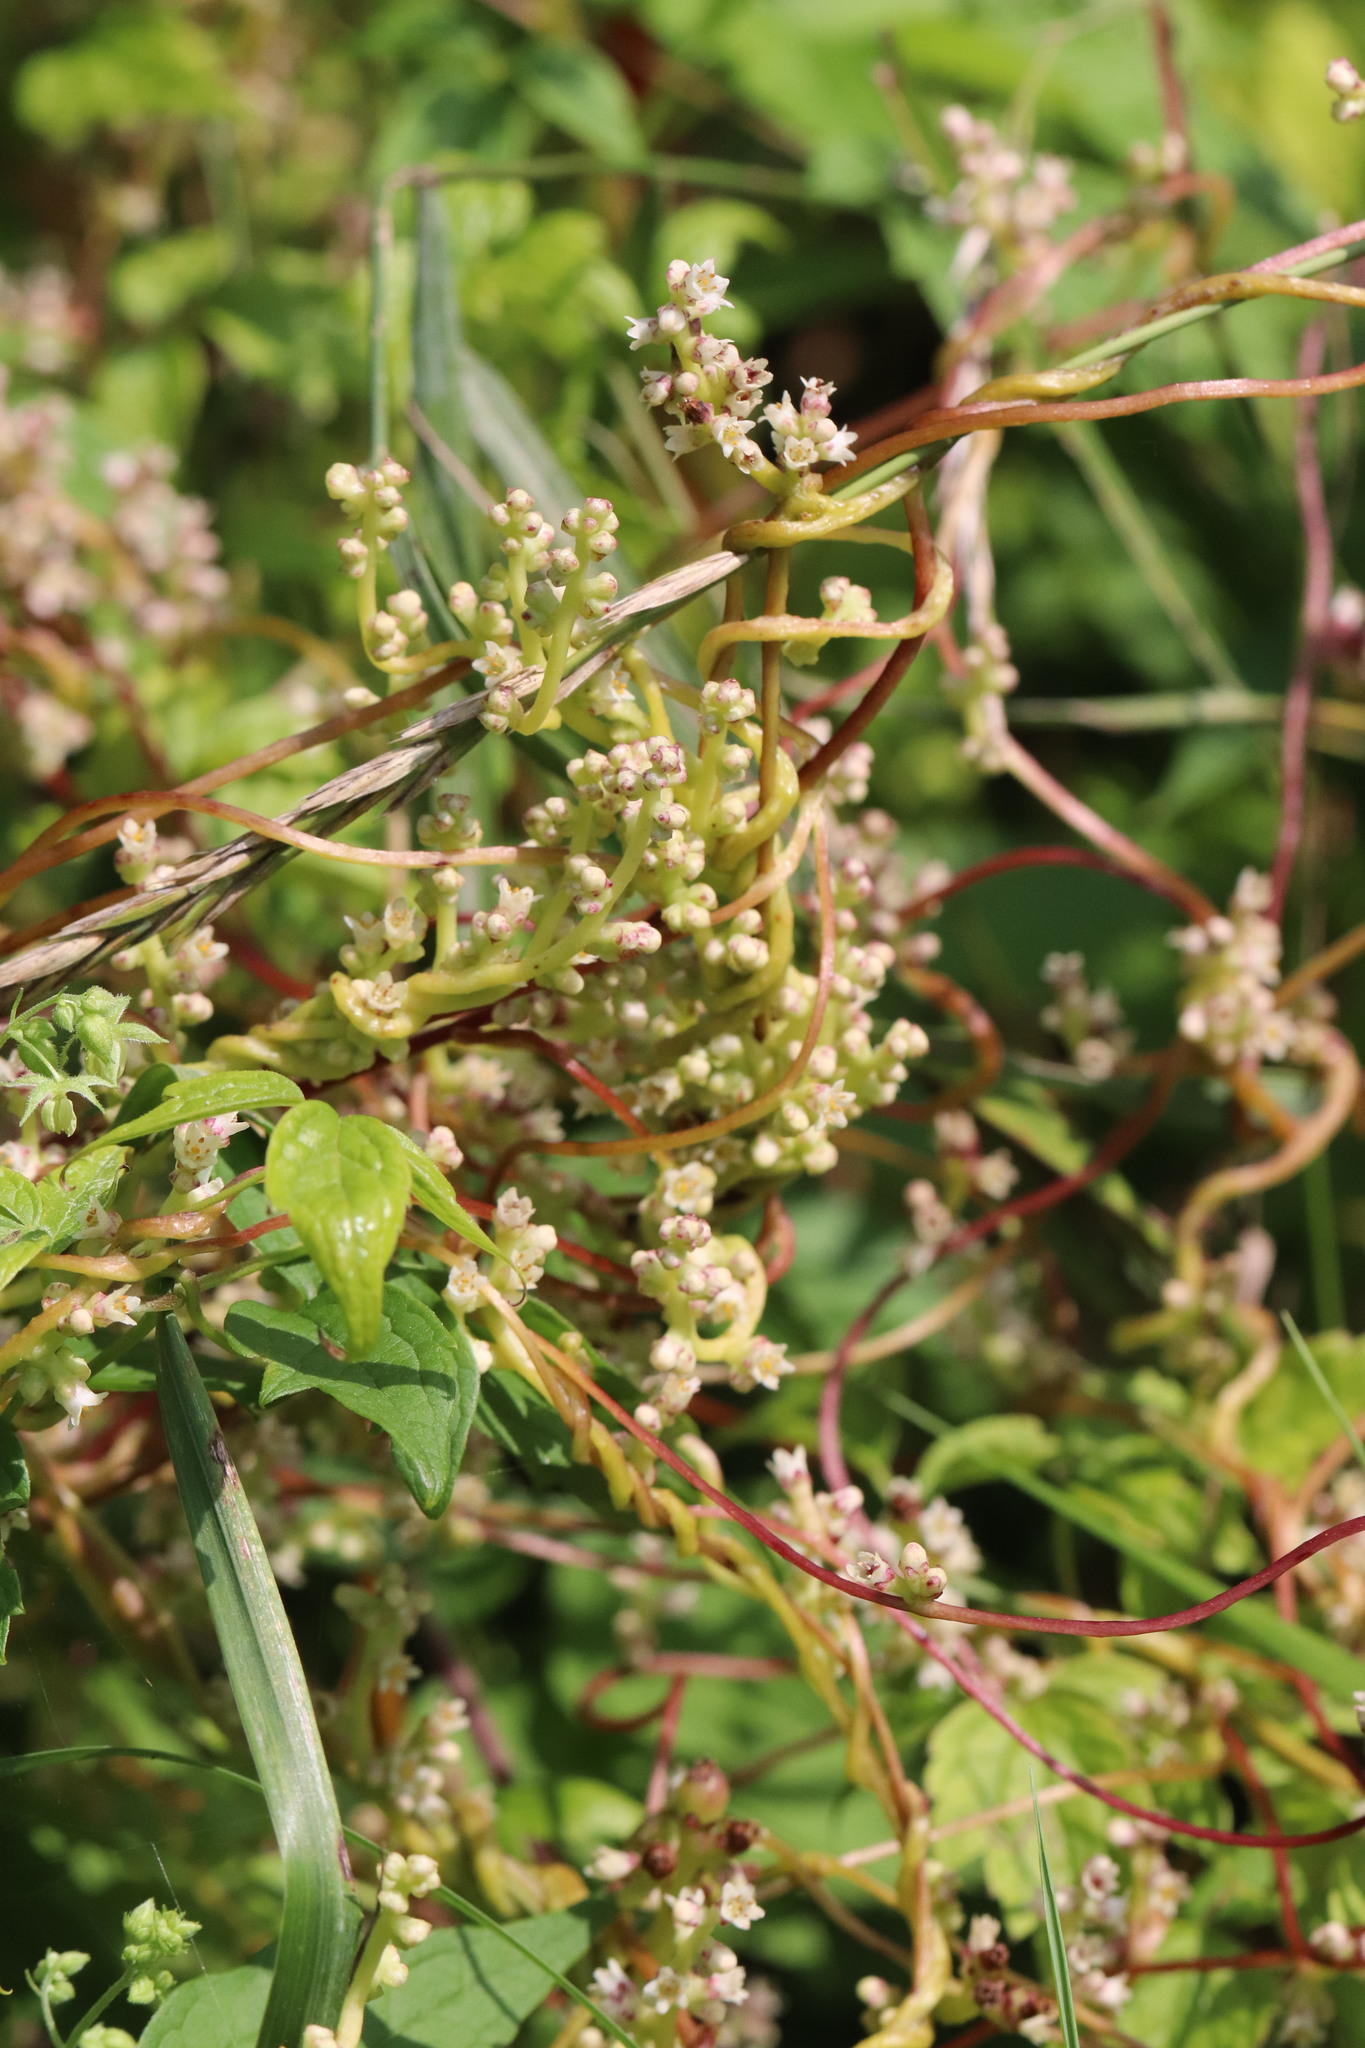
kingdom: Plantae
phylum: Tracheophyta
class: Magnoliopsida
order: Solanales
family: Convolvulaceae
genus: Cuscuta
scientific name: Cuscuta japonica
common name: Japanese dodder
